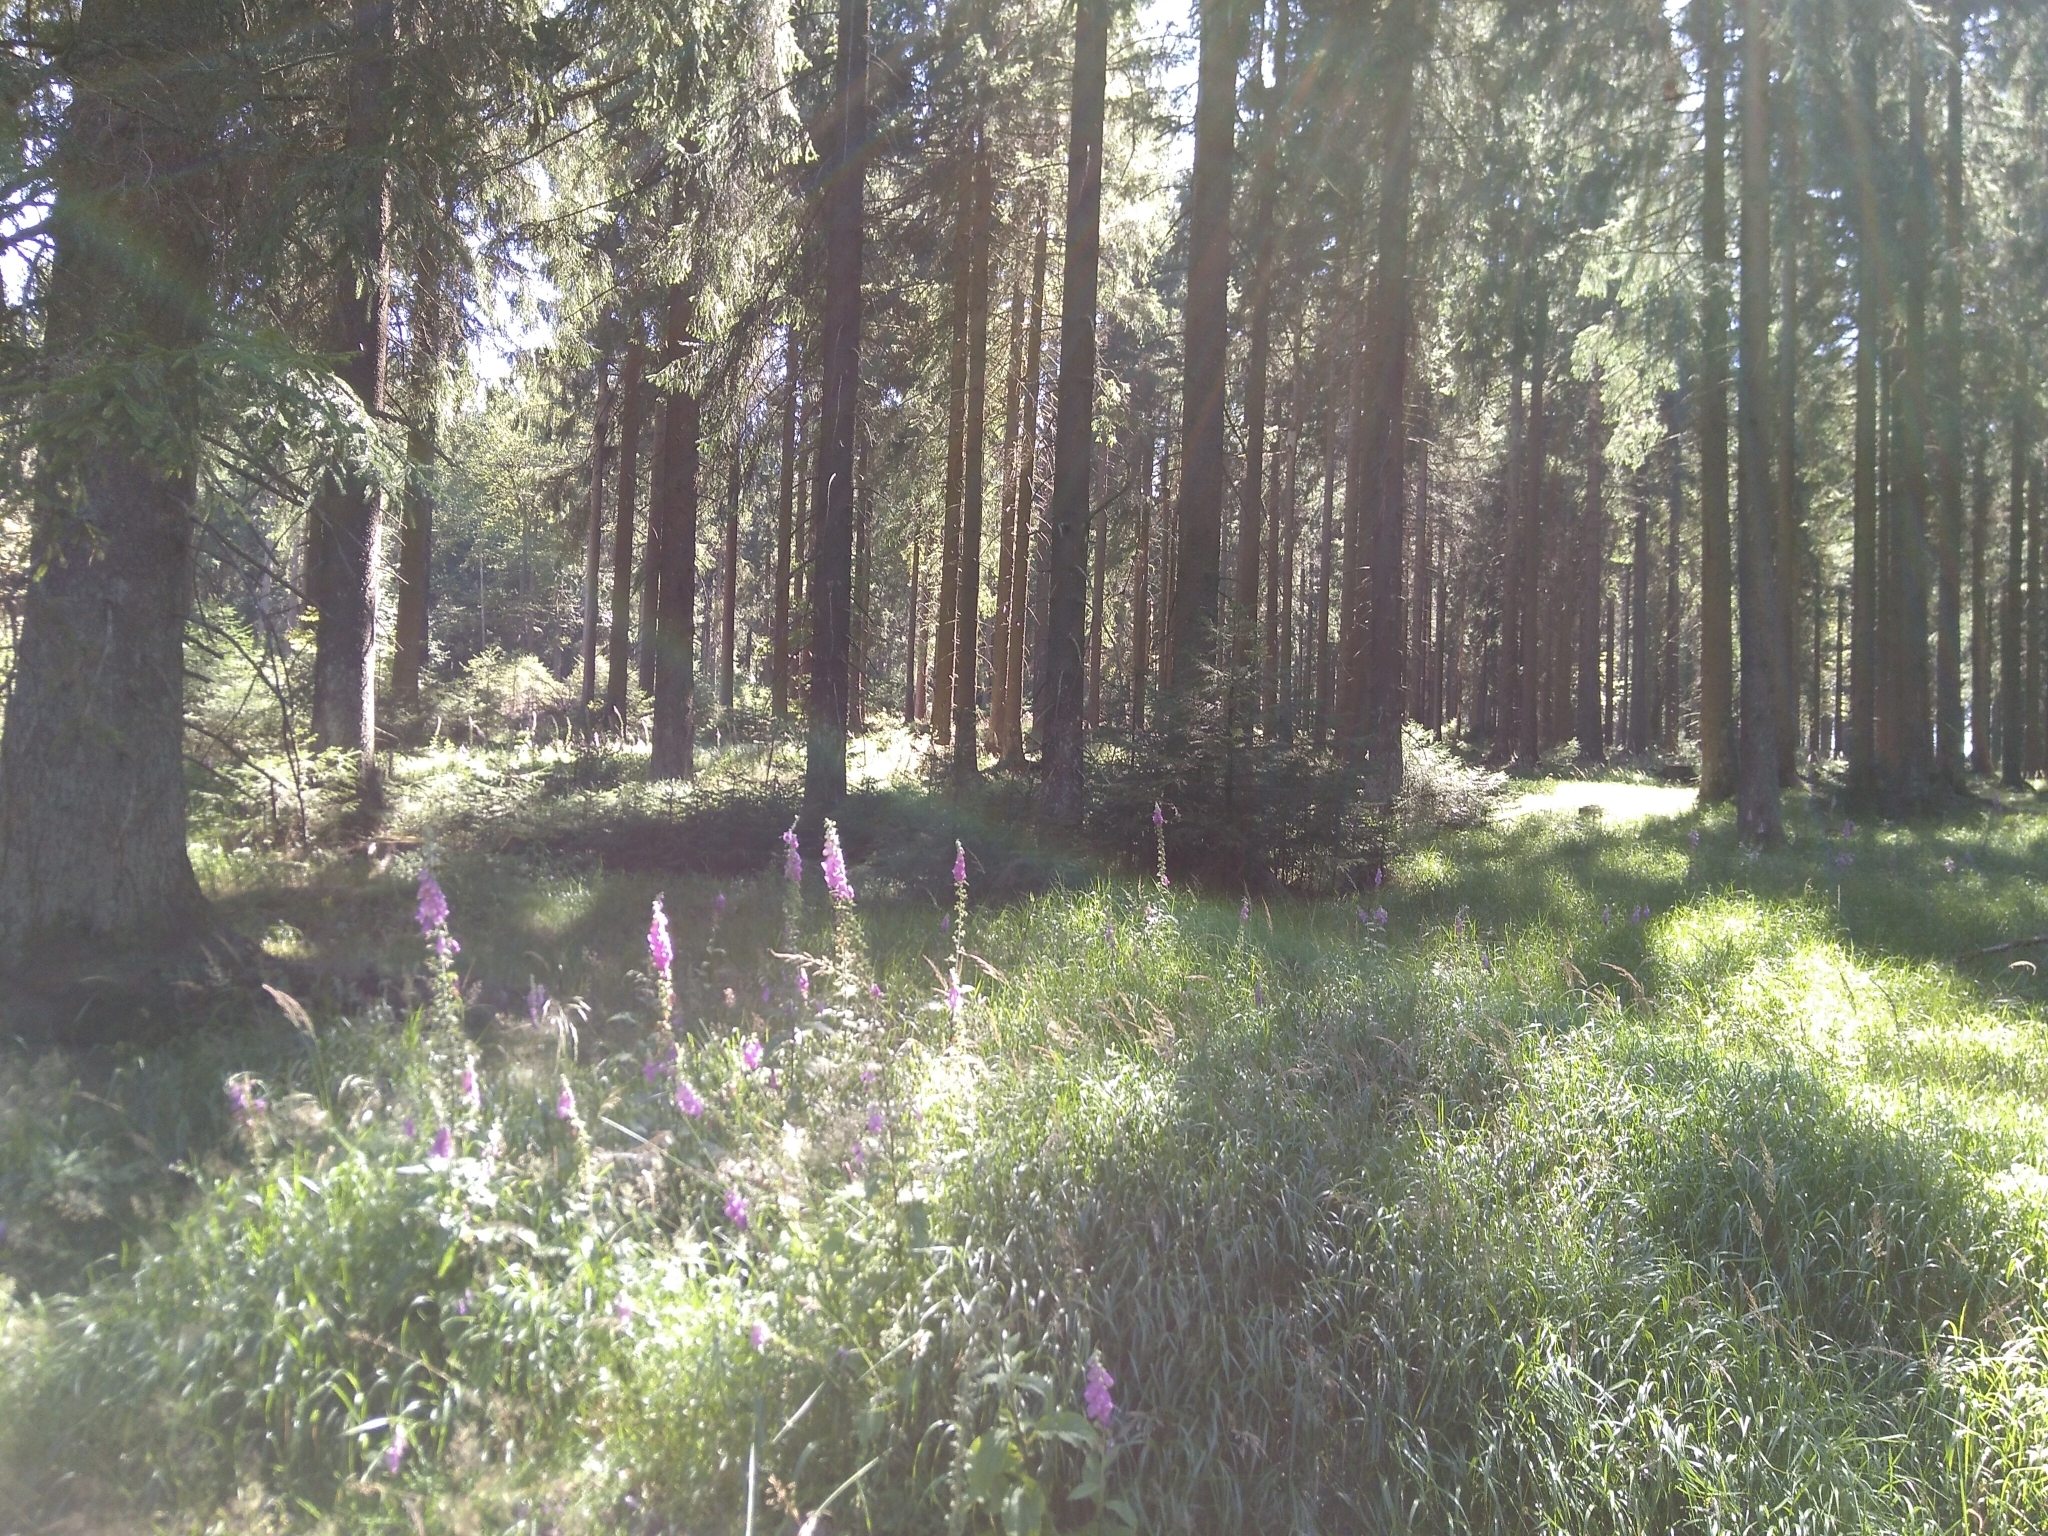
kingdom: Plantae
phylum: Tracheophyta
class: Magnoliopsida
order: Lamiales
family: Plantaginaceae
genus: Digitalis
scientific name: Digitalis purpurea
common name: Foxglove
